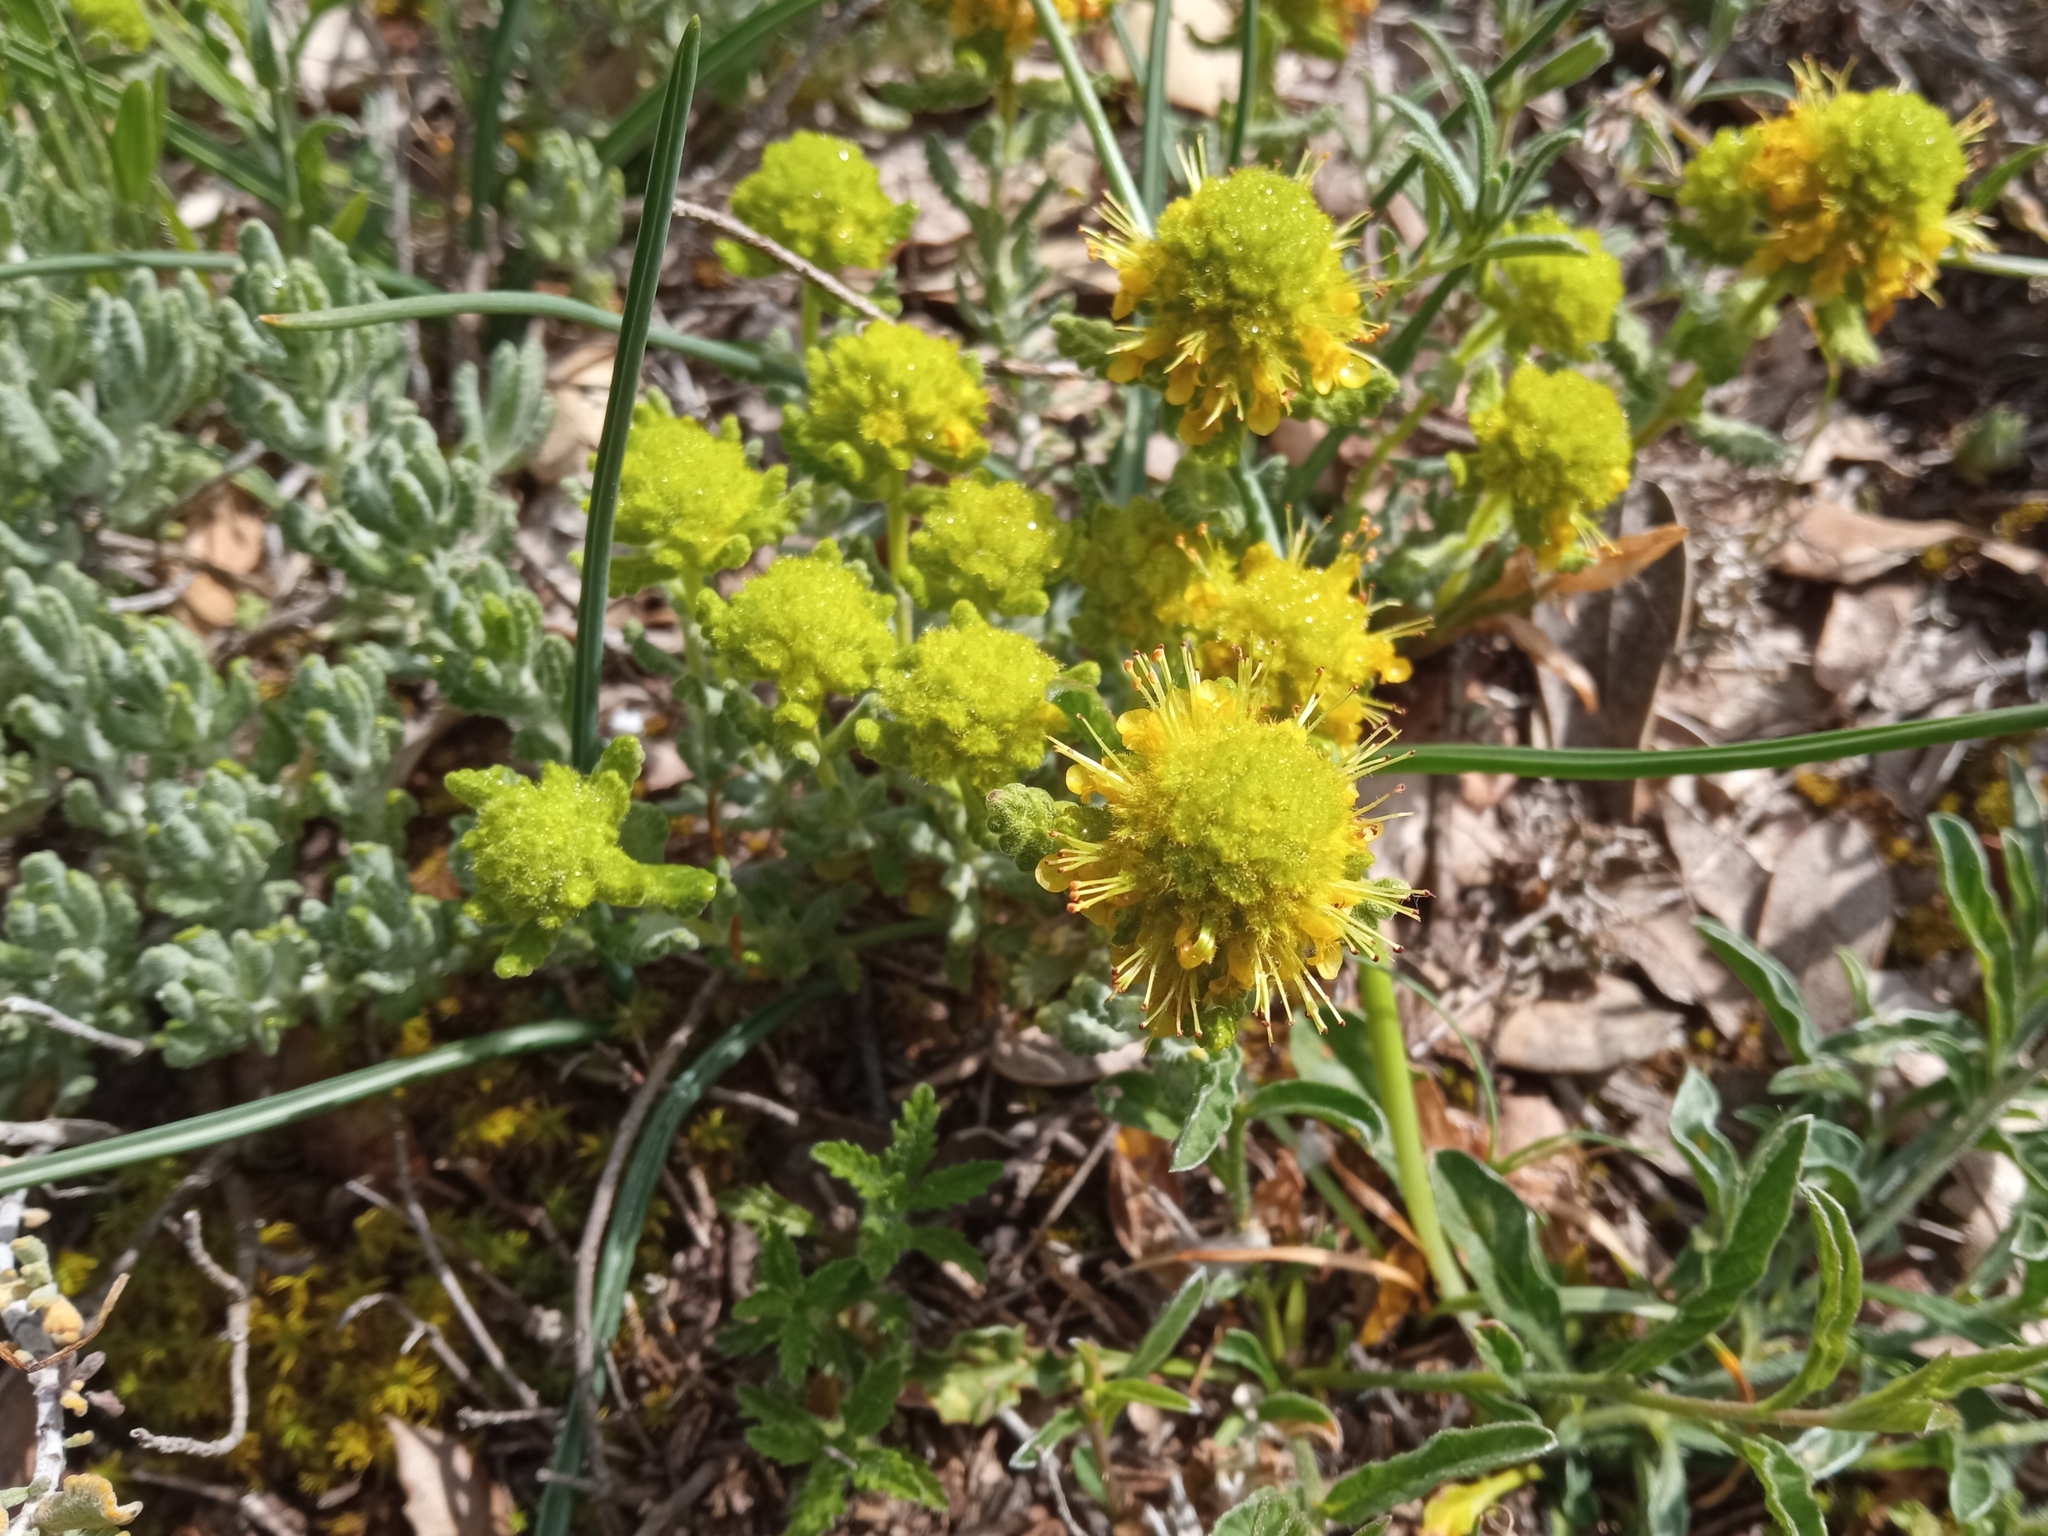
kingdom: Plantae
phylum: Tracheophyta
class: Magnoliopsida
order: Lamiales
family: Lamiaceae
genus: Teucrium
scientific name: Teucrium aureum
